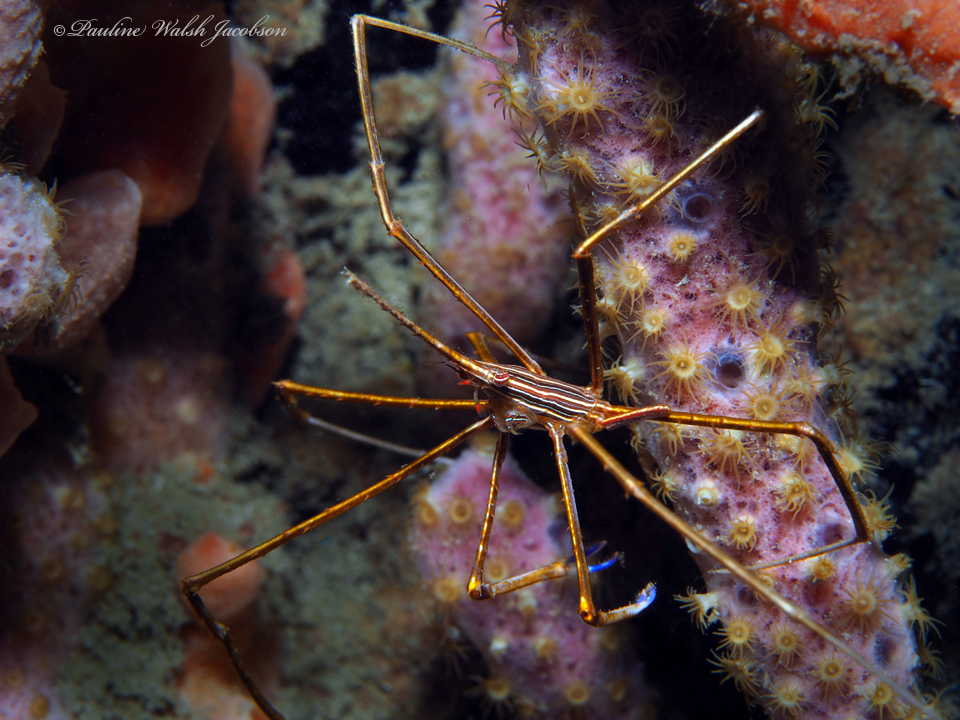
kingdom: Animalia
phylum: Arthropoda
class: Malacostraca
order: Decapoda
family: Inachoididae
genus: Stenorhynchus
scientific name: Stenorhynchus seticornis
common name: Arrow crab
